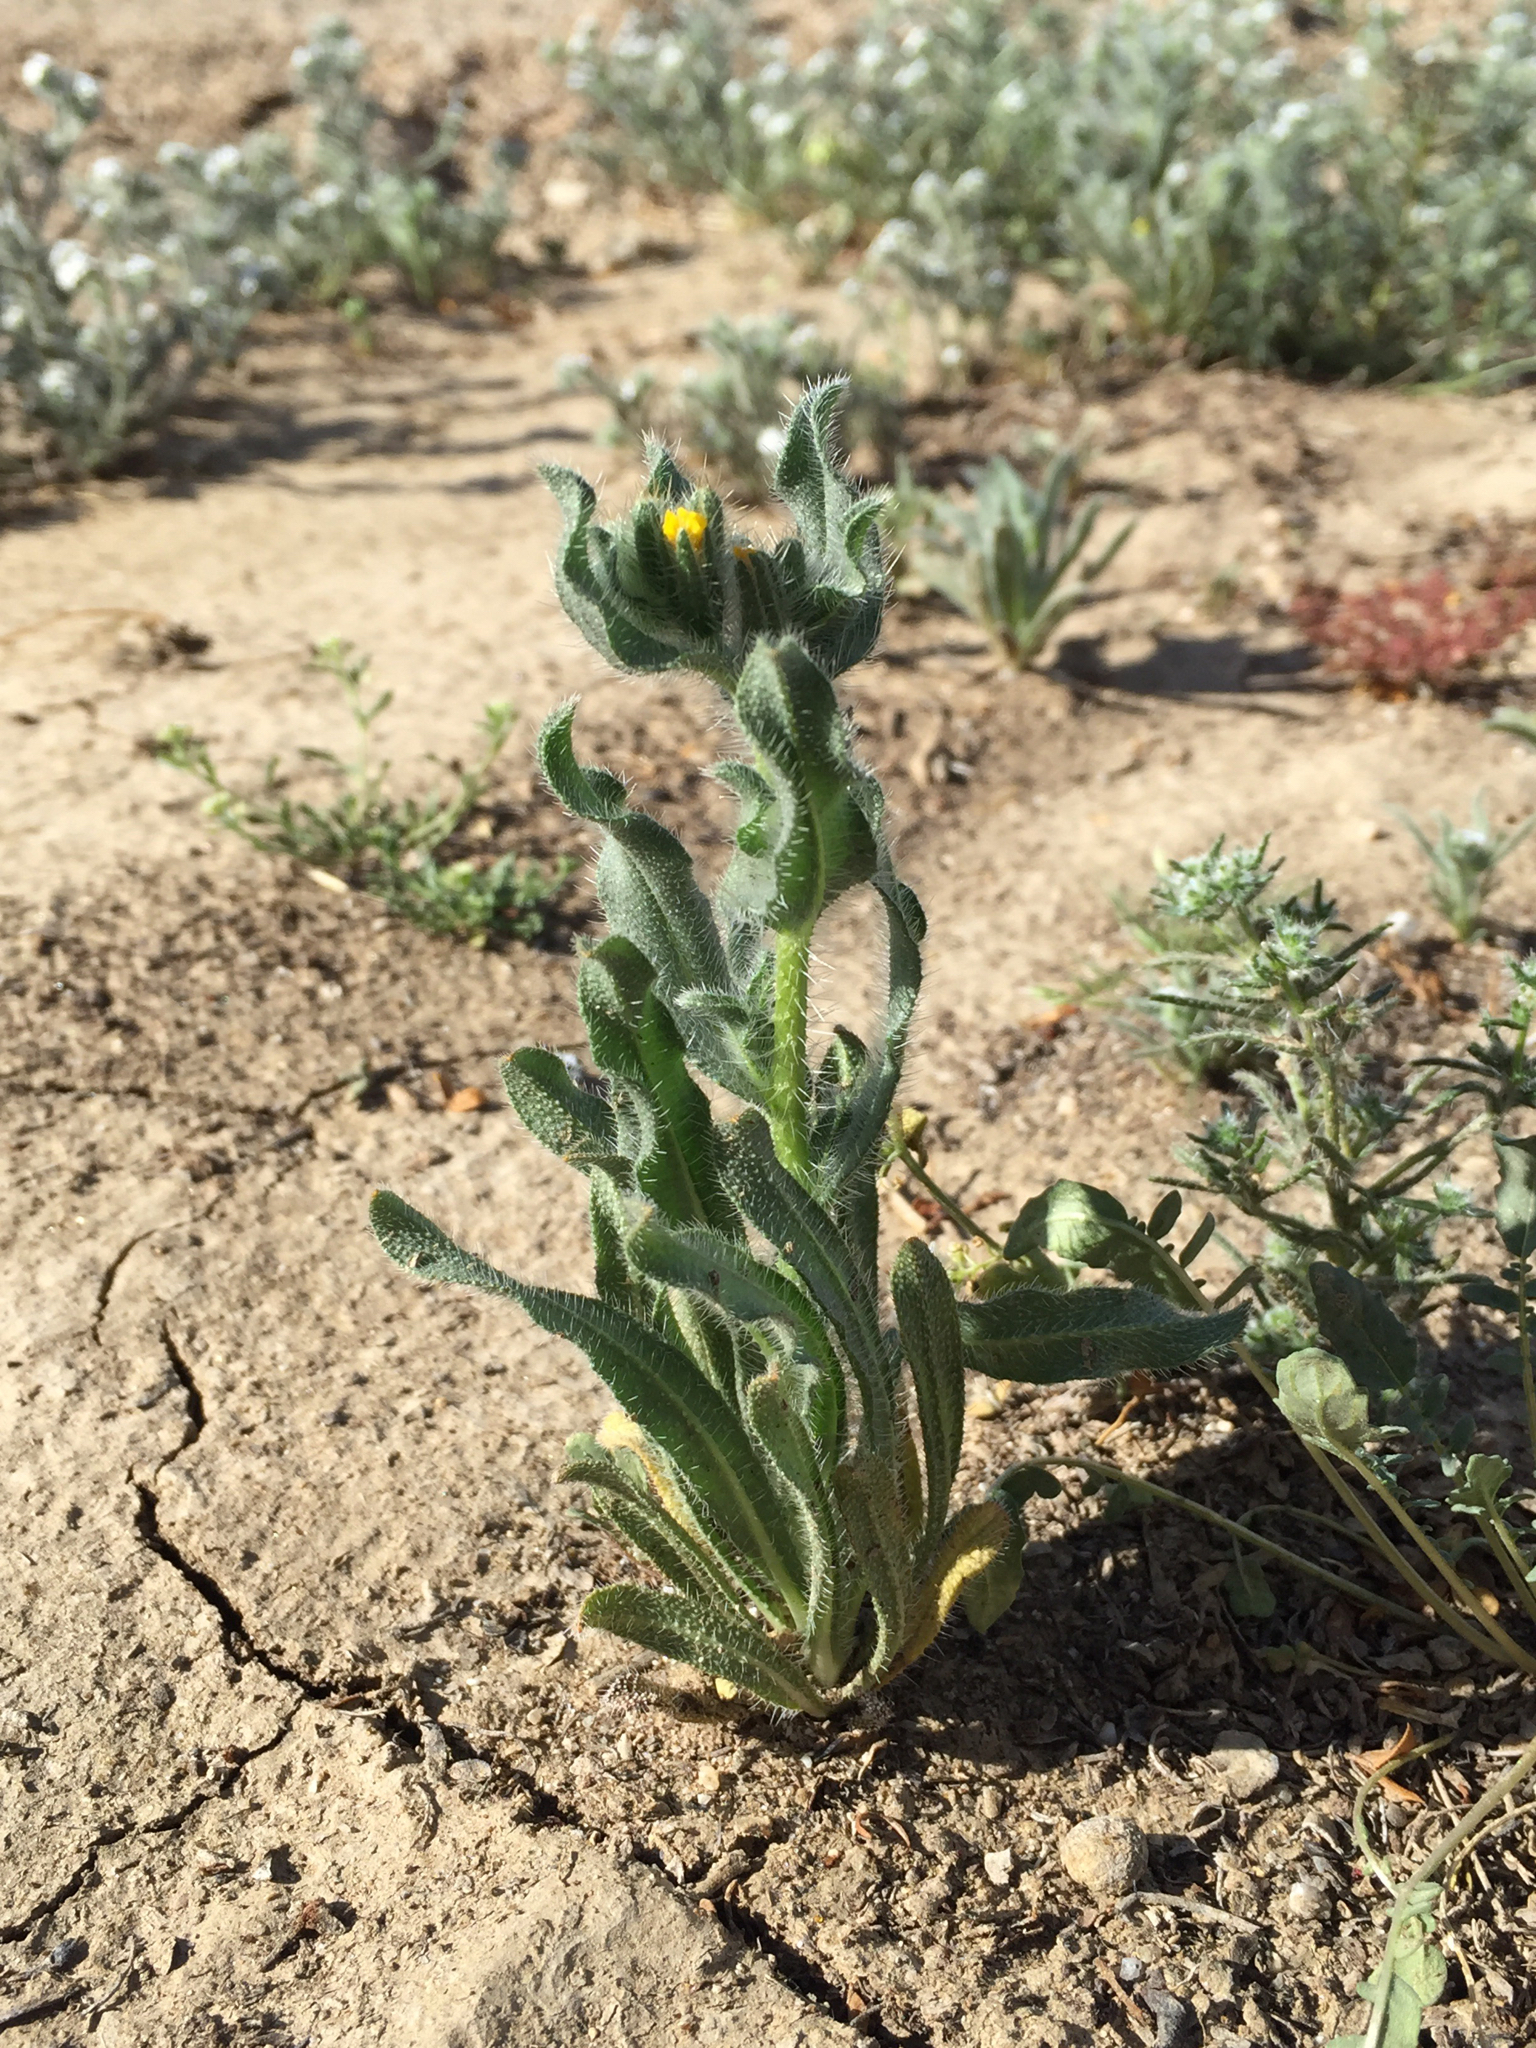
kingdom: Plantae
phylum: Tracheophyta
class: Magnoliopsida
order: Boraginales
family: Boraginaceae
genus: Amsinckia
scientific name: Amsinckia tessellata
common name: Tessellate fiddleneck
